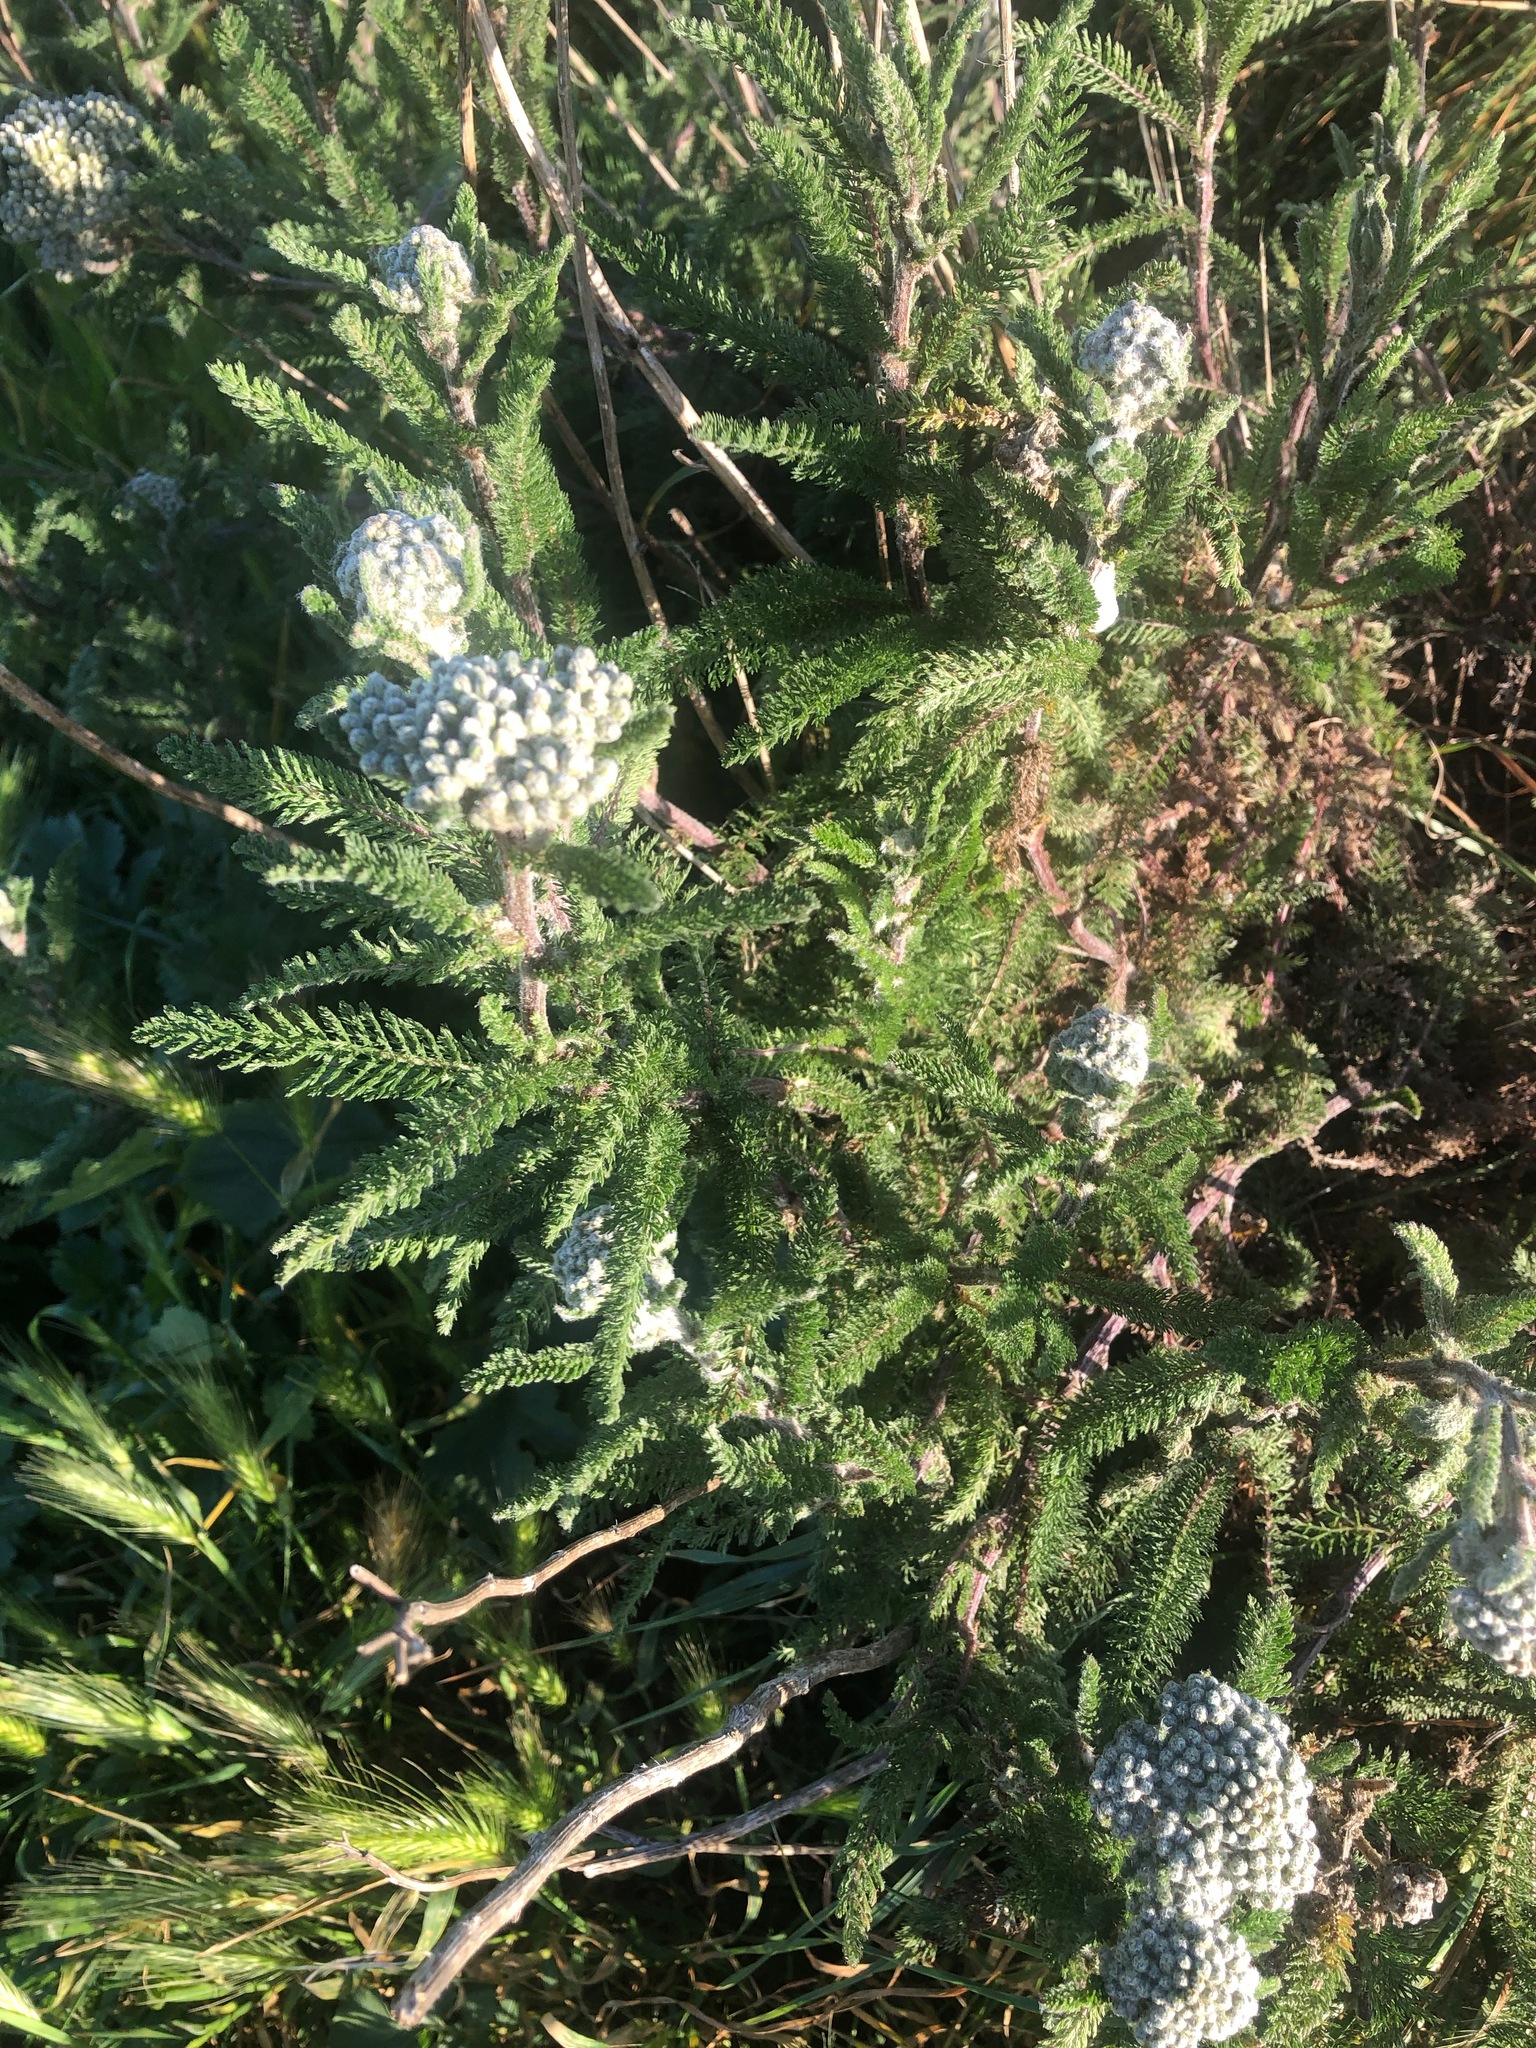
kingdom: Plantae
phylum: Tracheophyta
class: Magnoliopsida
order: Asterales
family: Asteraceae
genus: Achillea
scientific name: Achillea millefolium
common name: Yarrow
